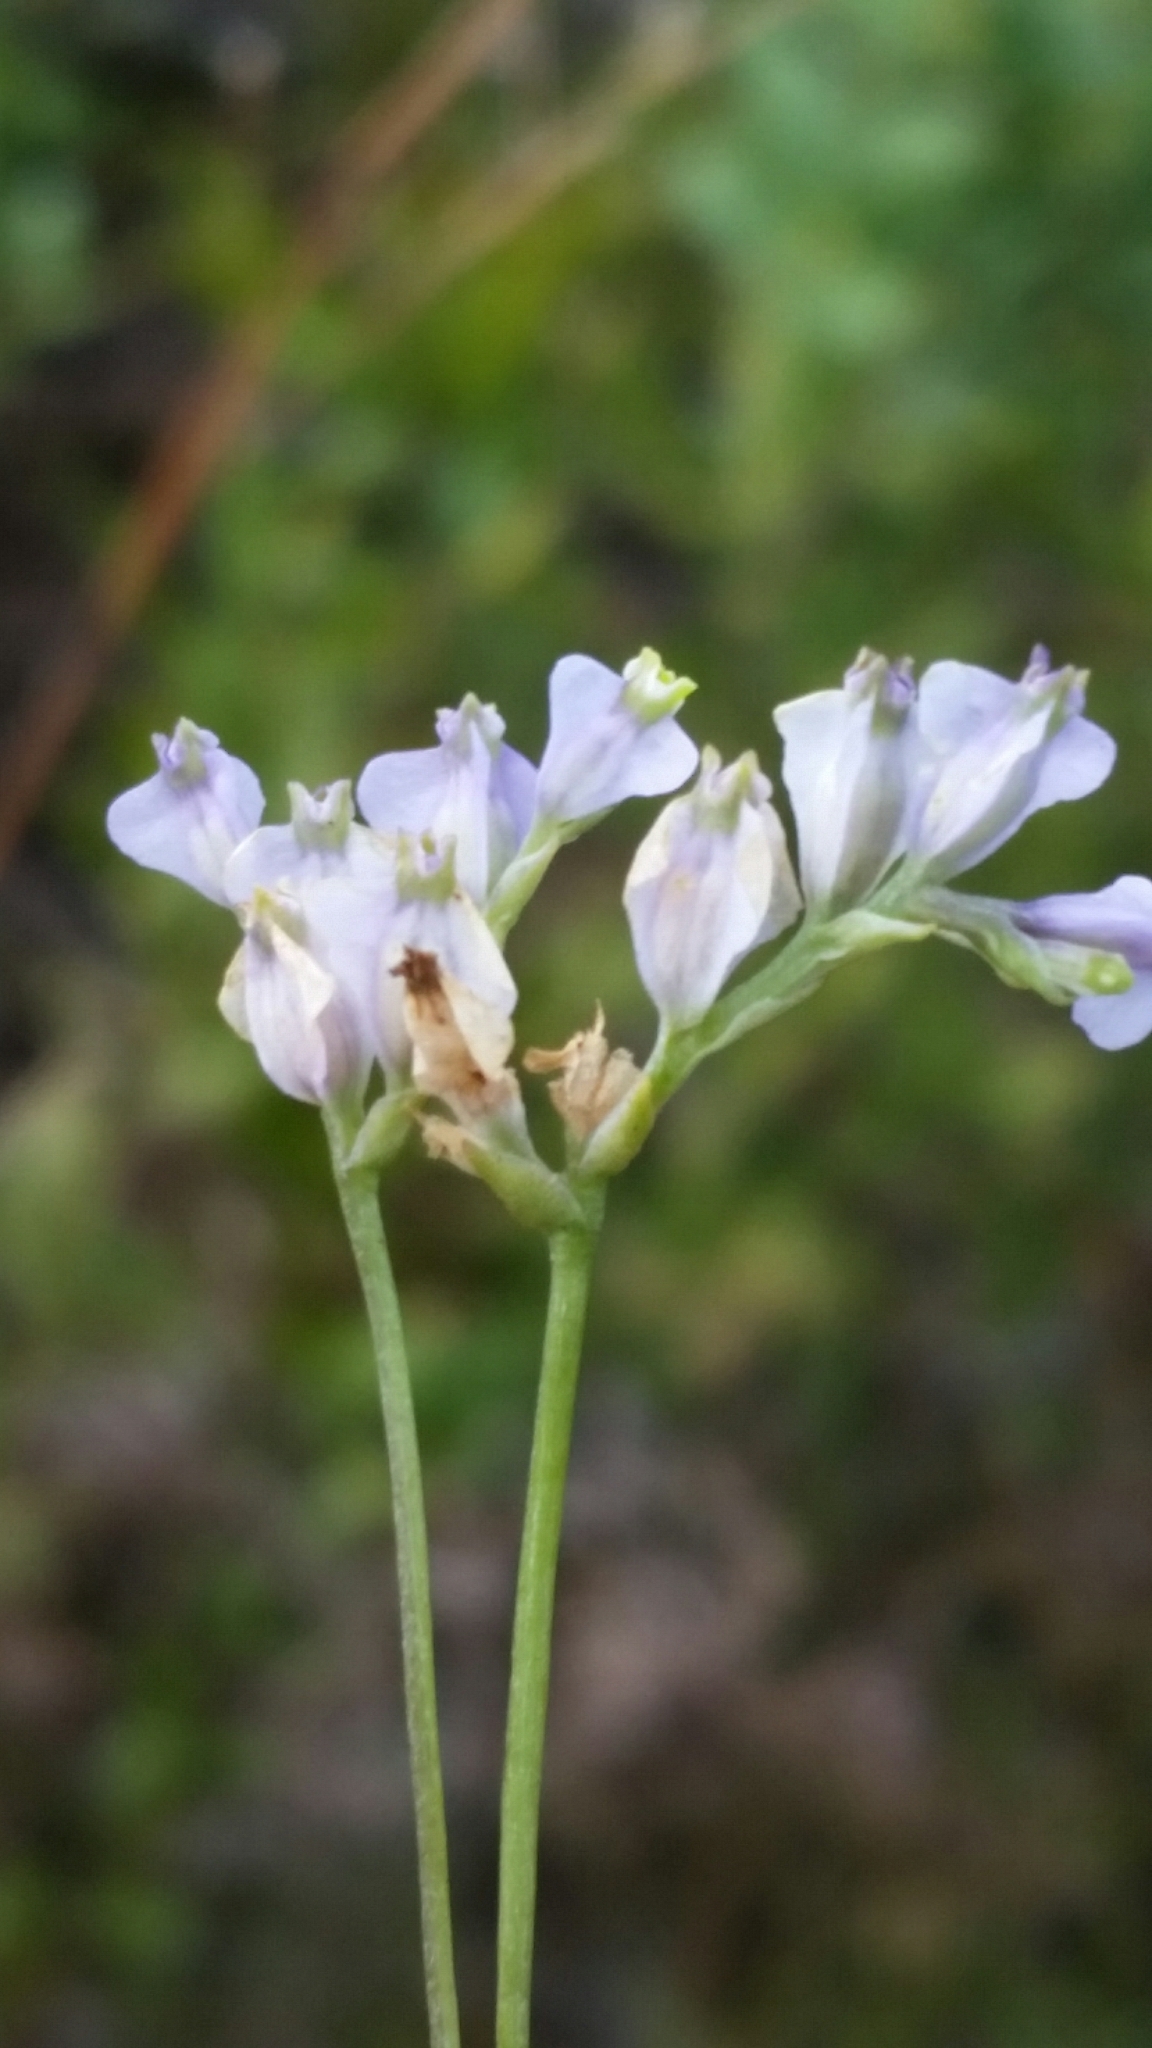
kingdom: Plantae
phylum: Tracheophyta
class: Liliopsida
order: Dioscoreales
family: Burmanniaceae
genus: Burmannia
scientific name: Burmannia biflora
